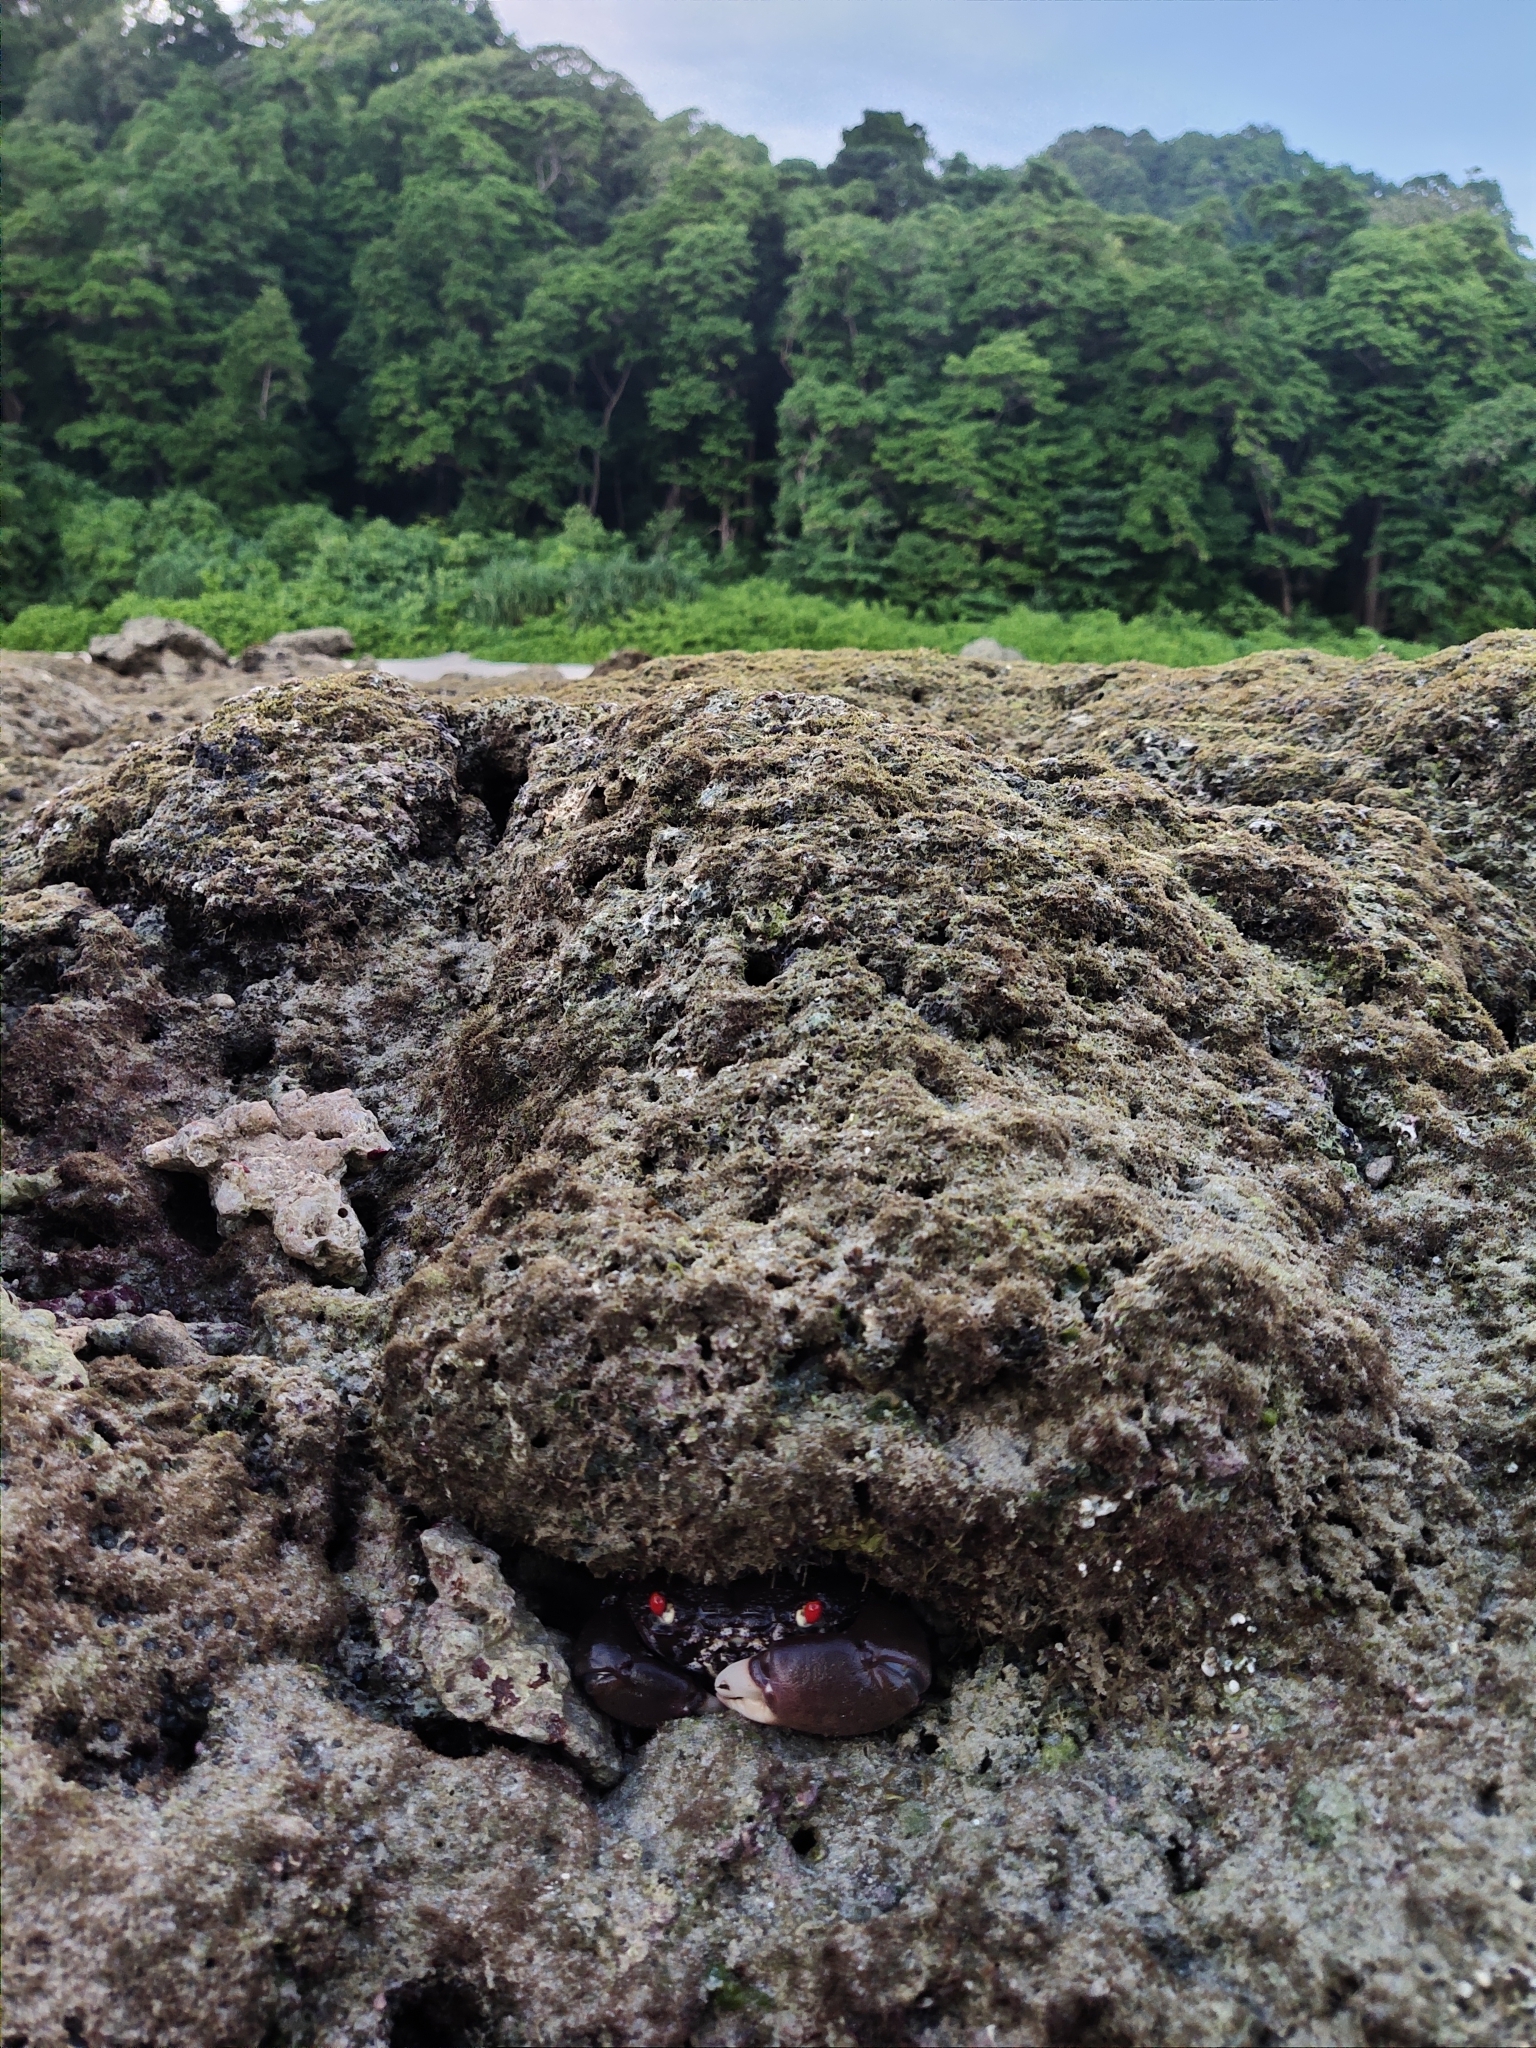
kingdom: Animalia
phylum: Arthropoda
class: Malacostraca
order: Decapoda
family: Eriphiidae
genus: Eriphia
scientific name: Eriphia sebana
